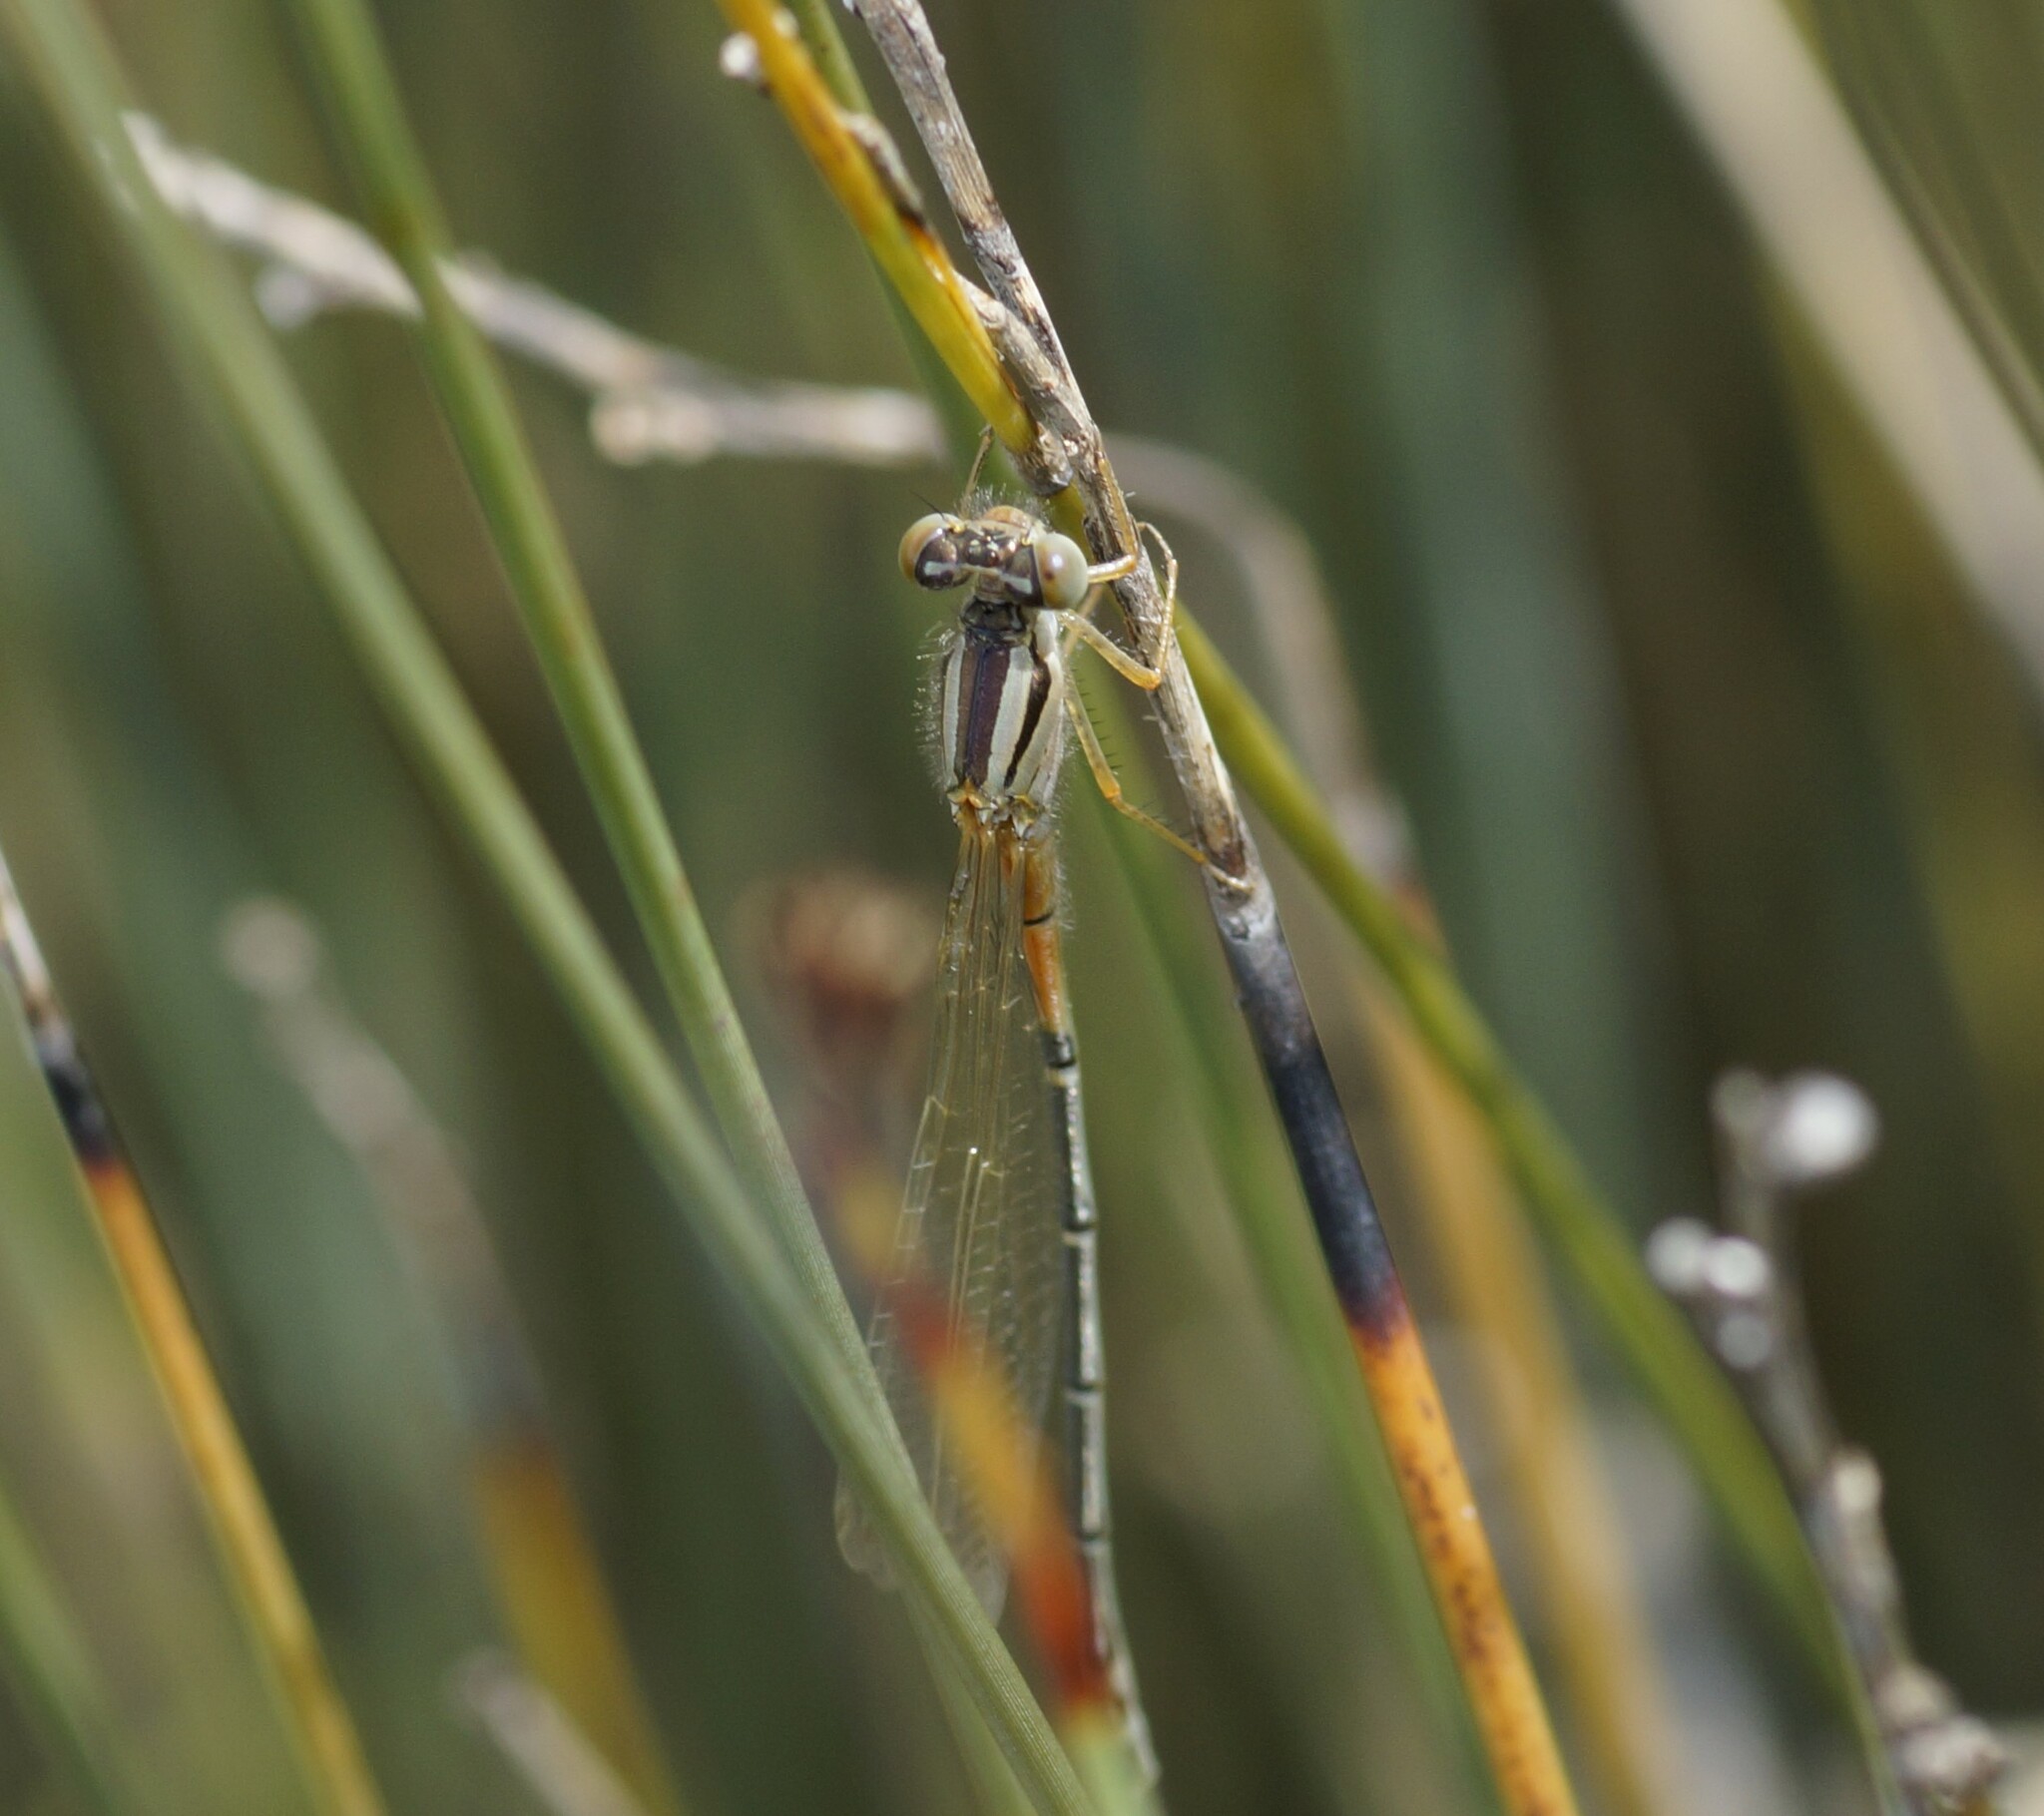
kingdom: Animalia
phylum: Arthropoda
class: Insecta
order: Odonata
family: Coenagrionidae
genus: Xanthagrion
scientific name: Xanthagrion erythroneurum
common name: Red and blue damsel
